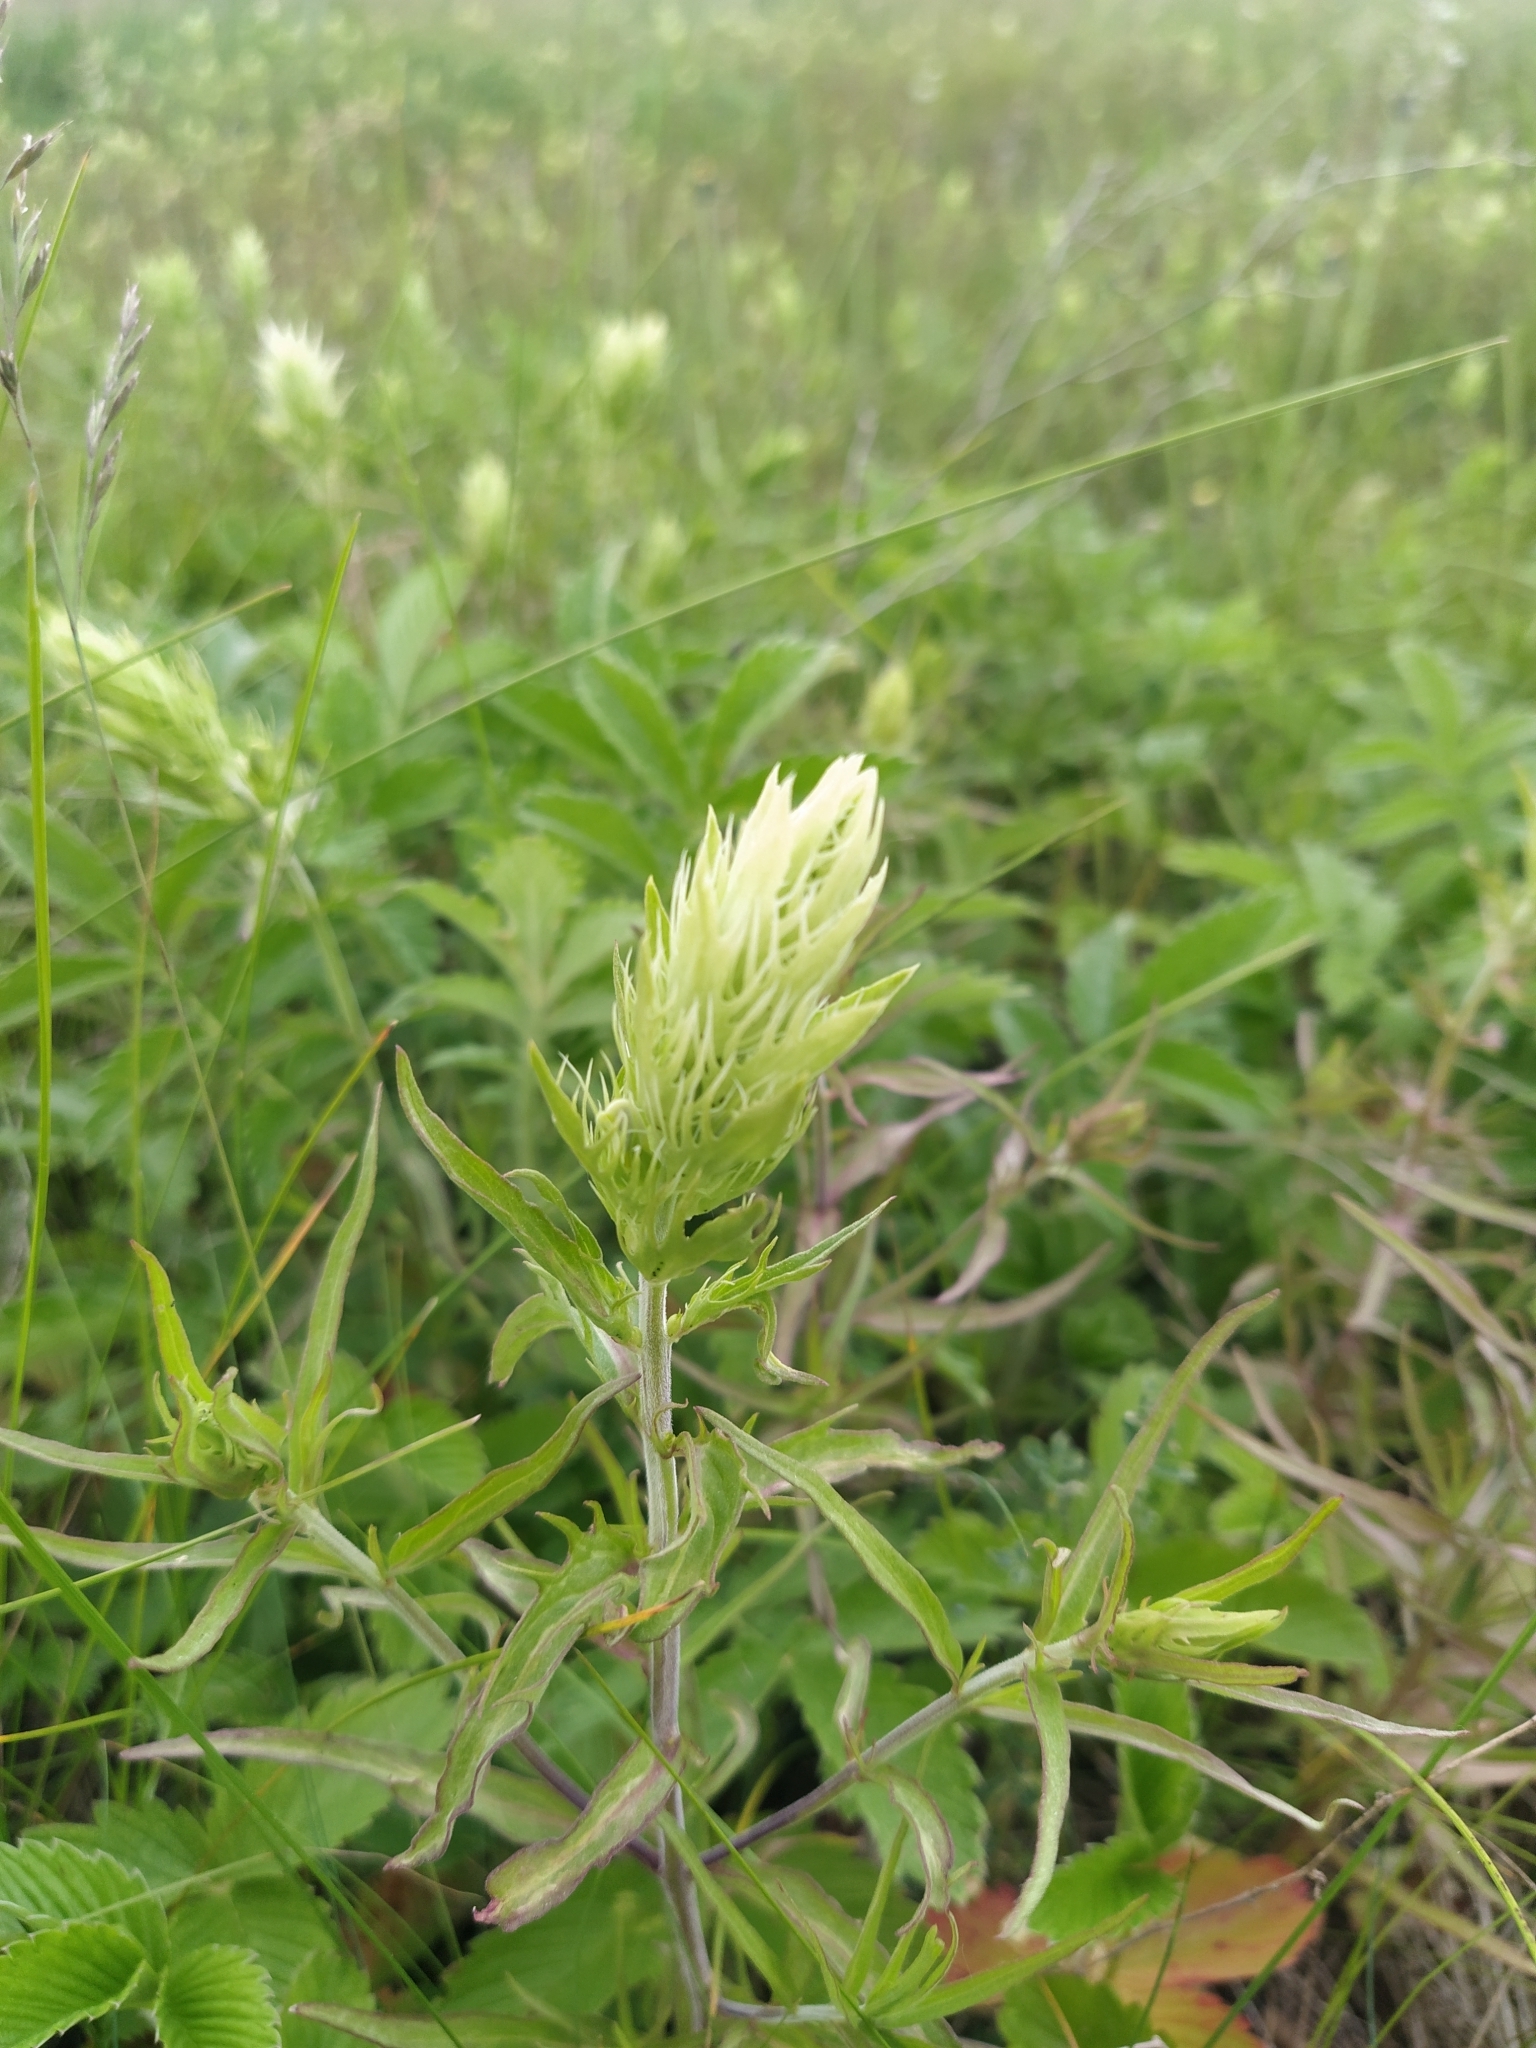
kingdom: Plantae
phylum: Tracheophyta
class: Magnoliopsida
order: Lamiales
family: Orobanchaceae
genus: Melampyrum
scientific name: Melampyrum arvense
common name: Field cow-wheat
